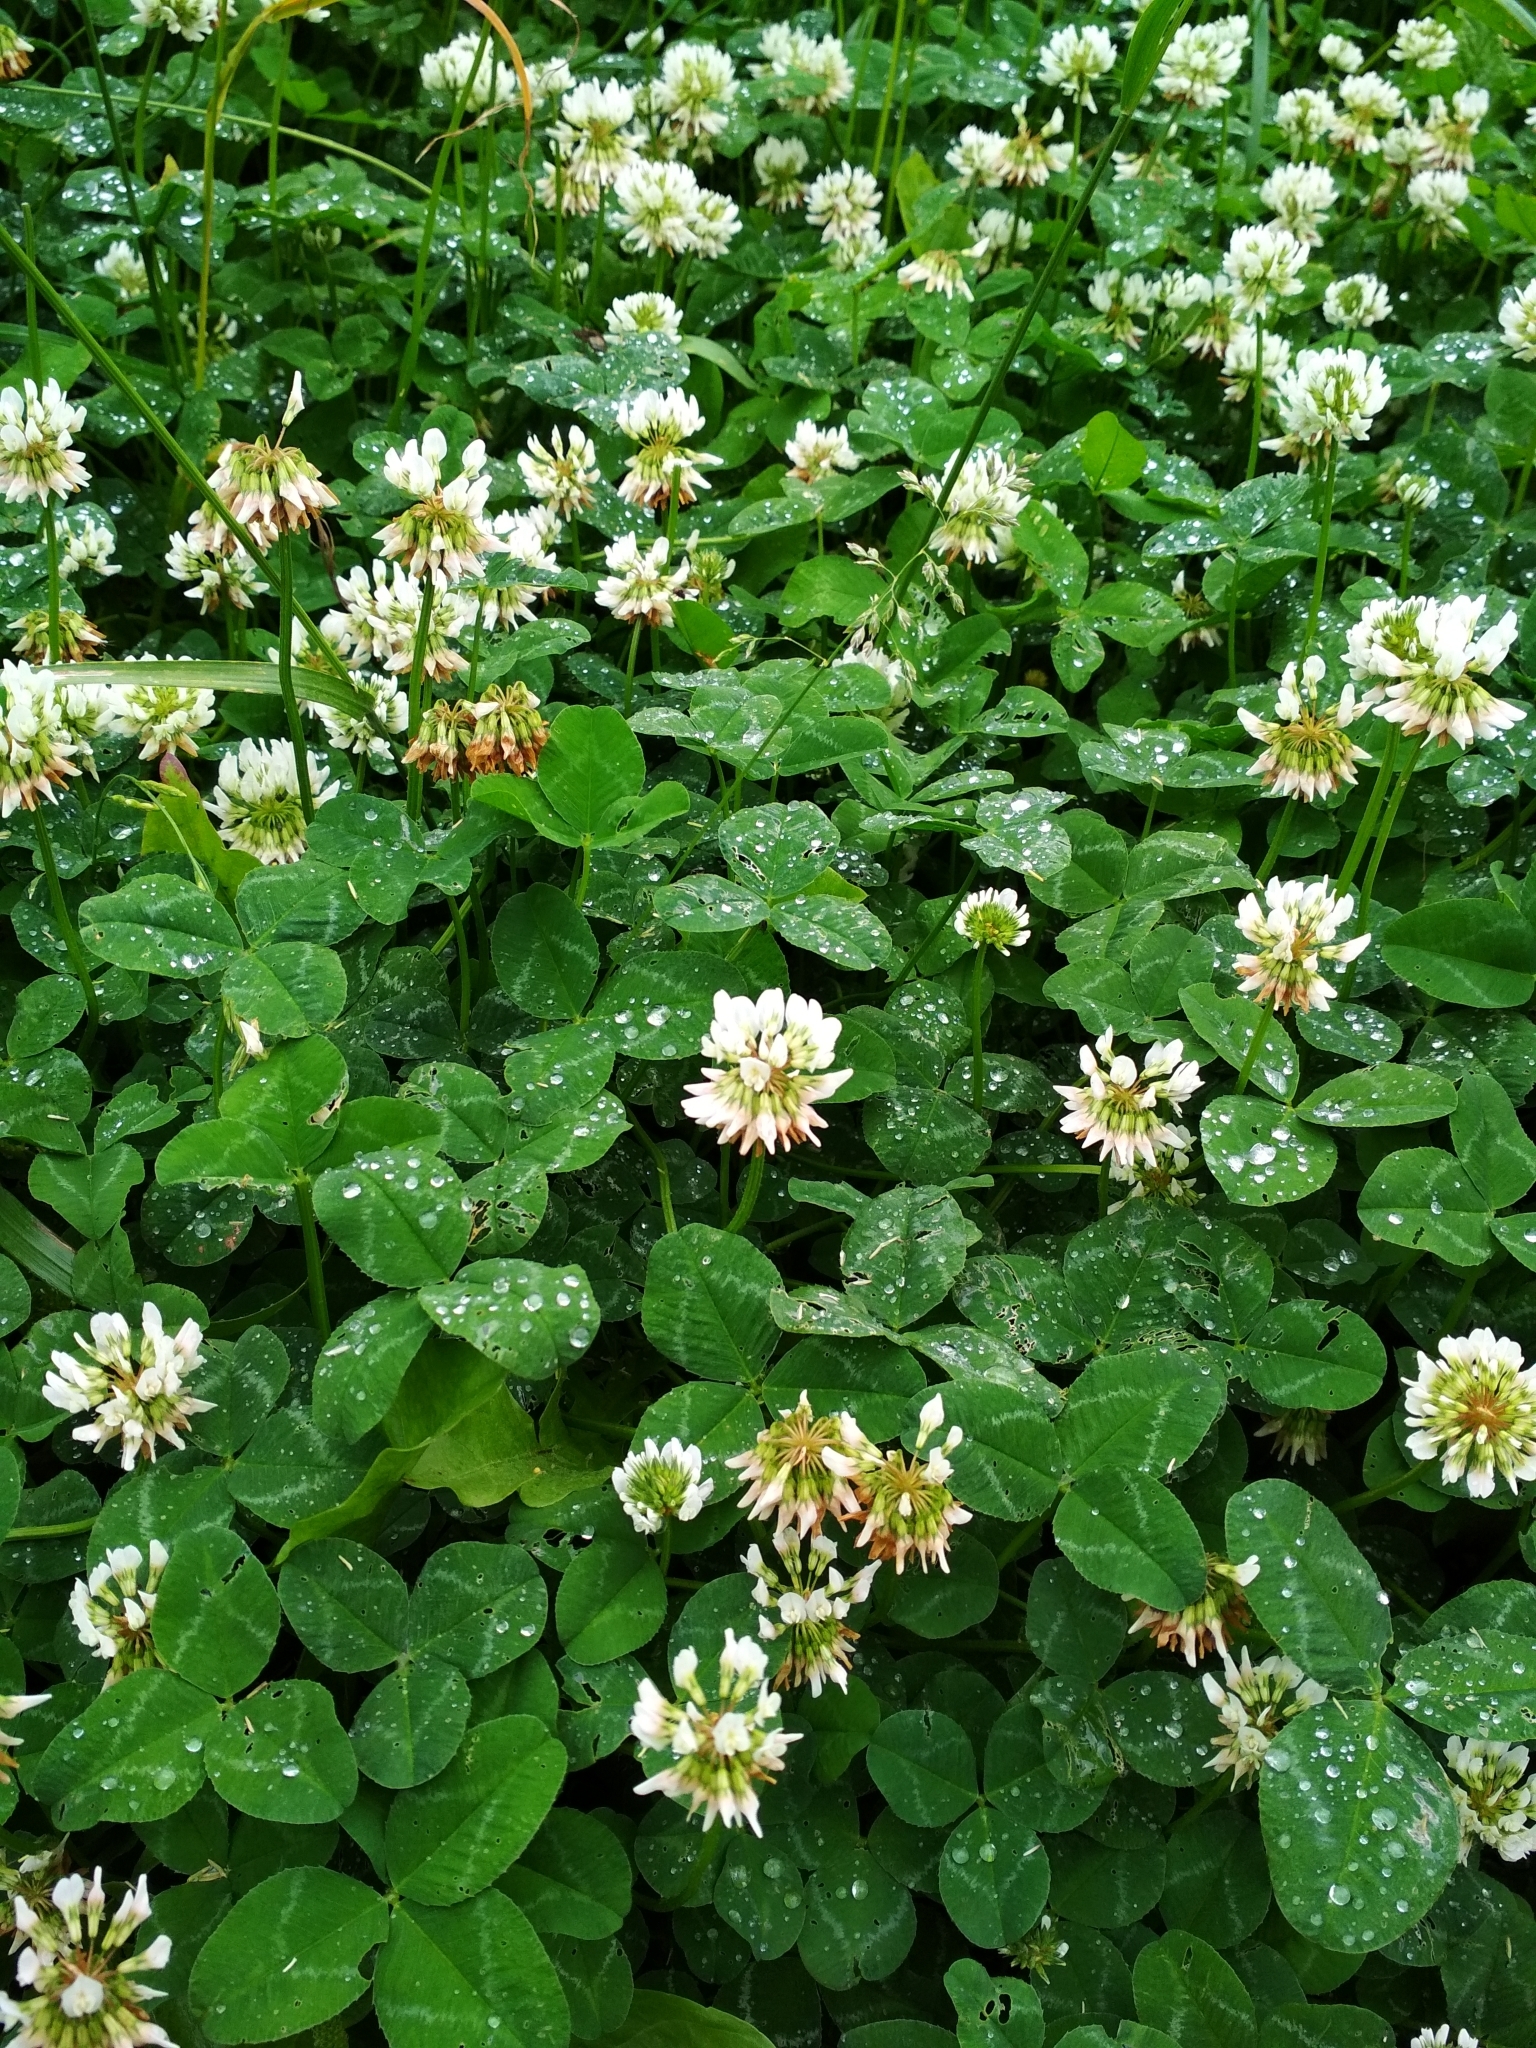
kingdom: Plantae
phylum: Tracheophyta
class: Magnoliopsida
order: Fabales
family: Fabaceae
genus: Trifolium
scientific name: Trifolium repens
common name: White clover
